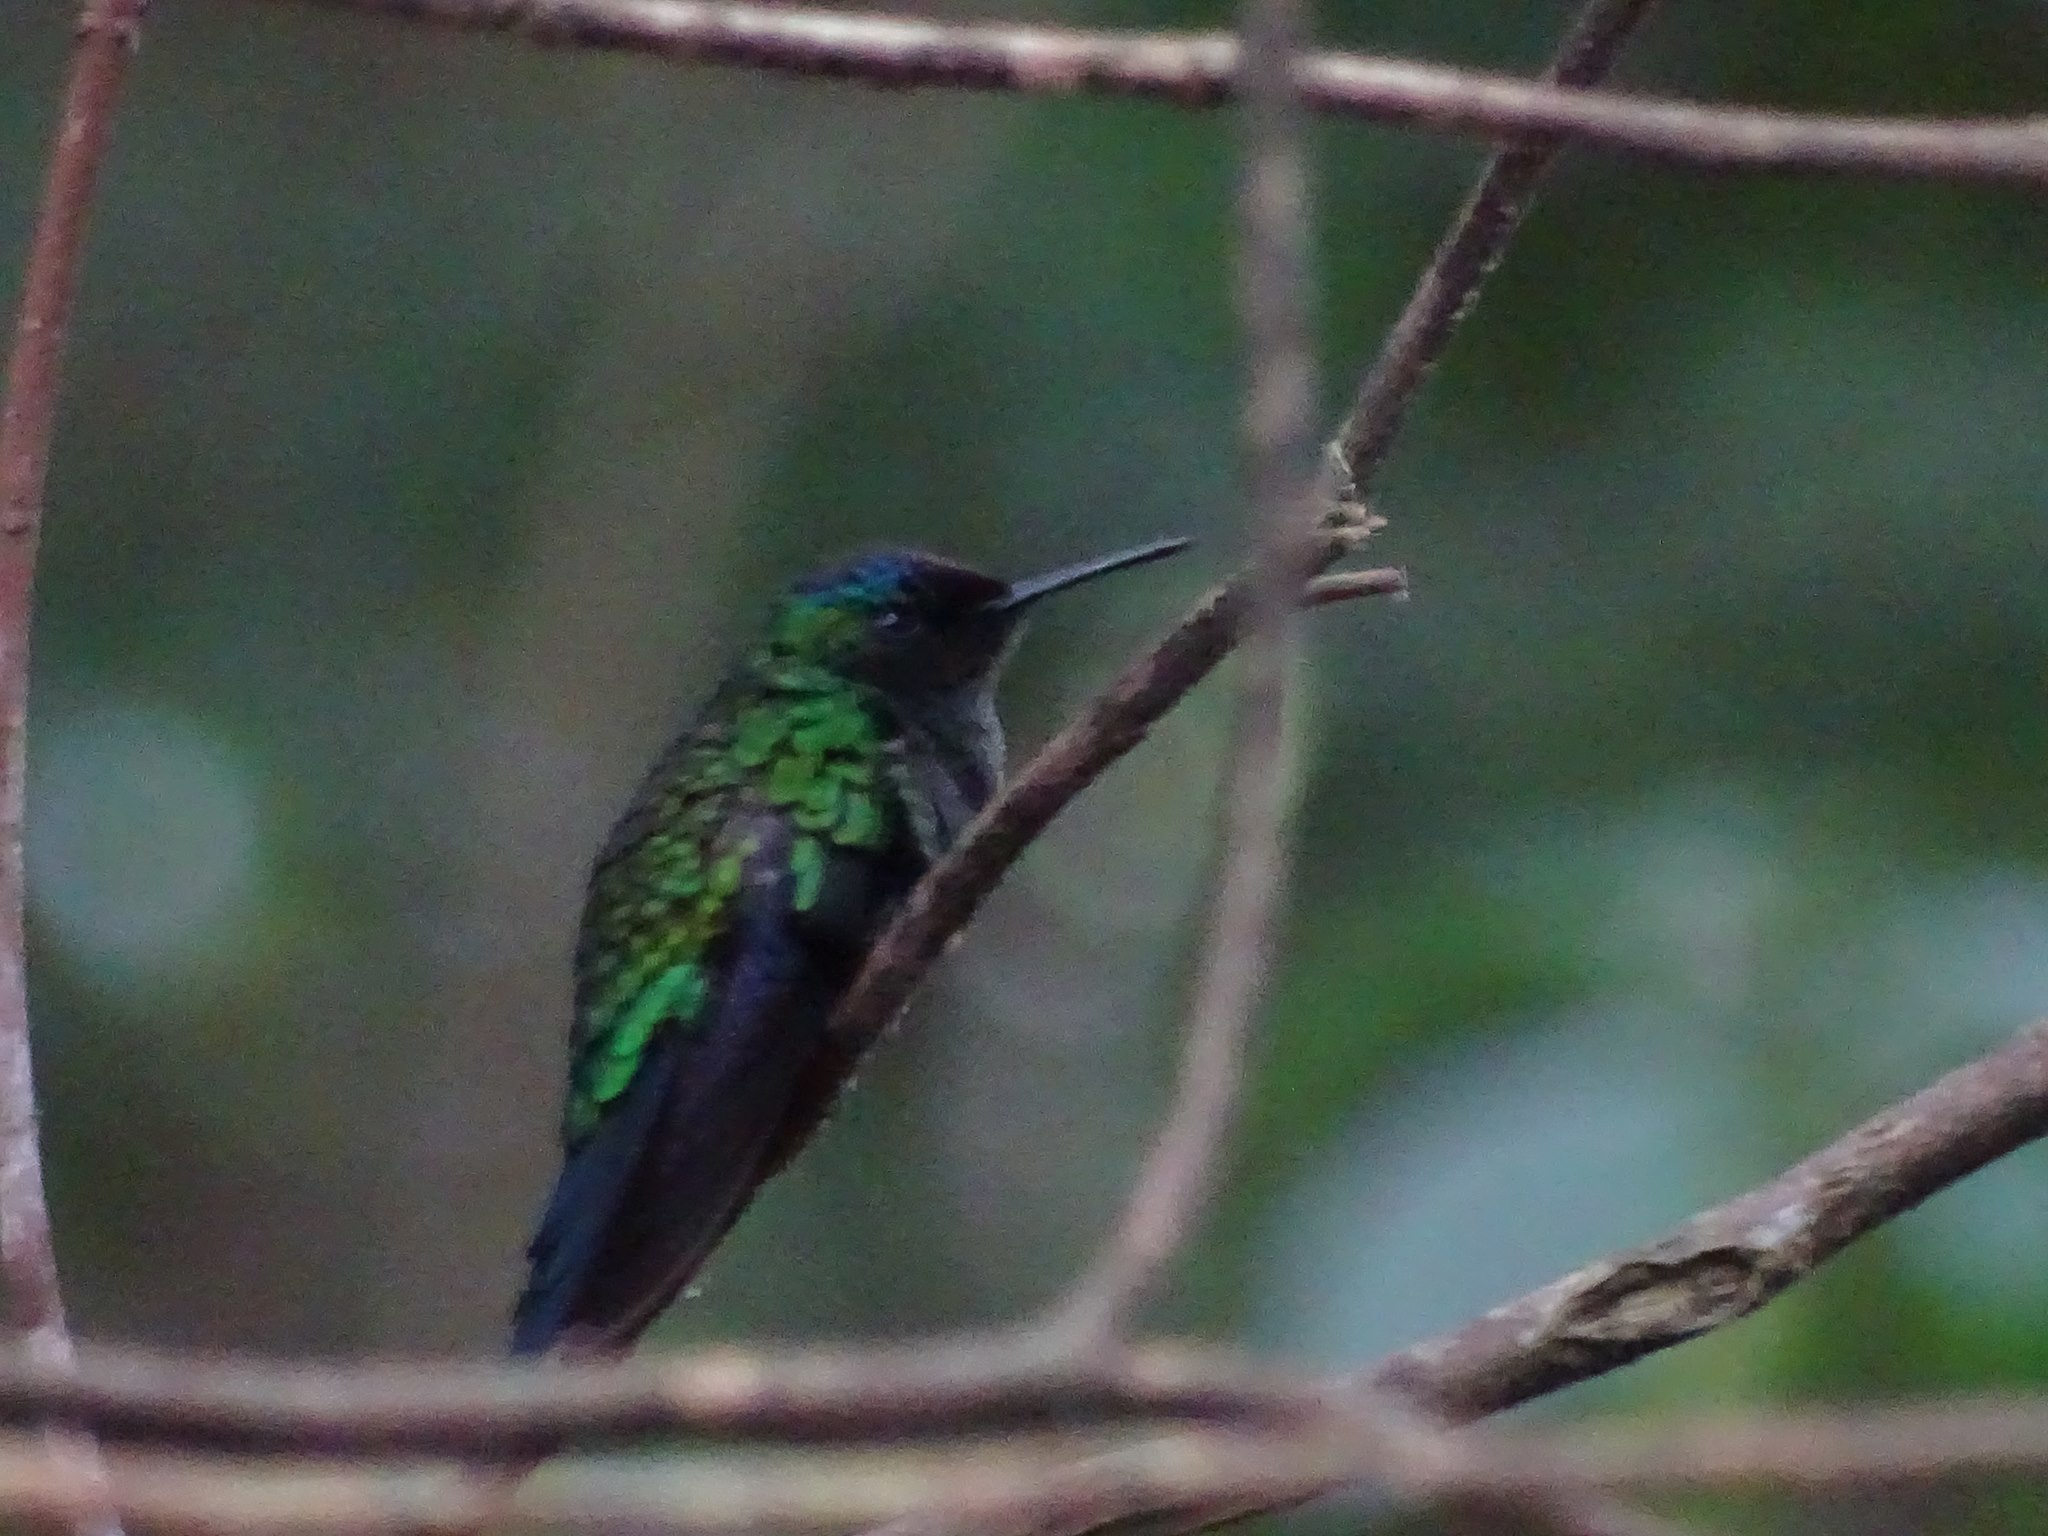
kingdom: Animalia
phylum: Chordata
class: Aves
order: Apodiformes
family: Trochilidae
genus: Thalurania
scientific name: Thalurania glaucopis
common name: Violet-capped woodnymph
